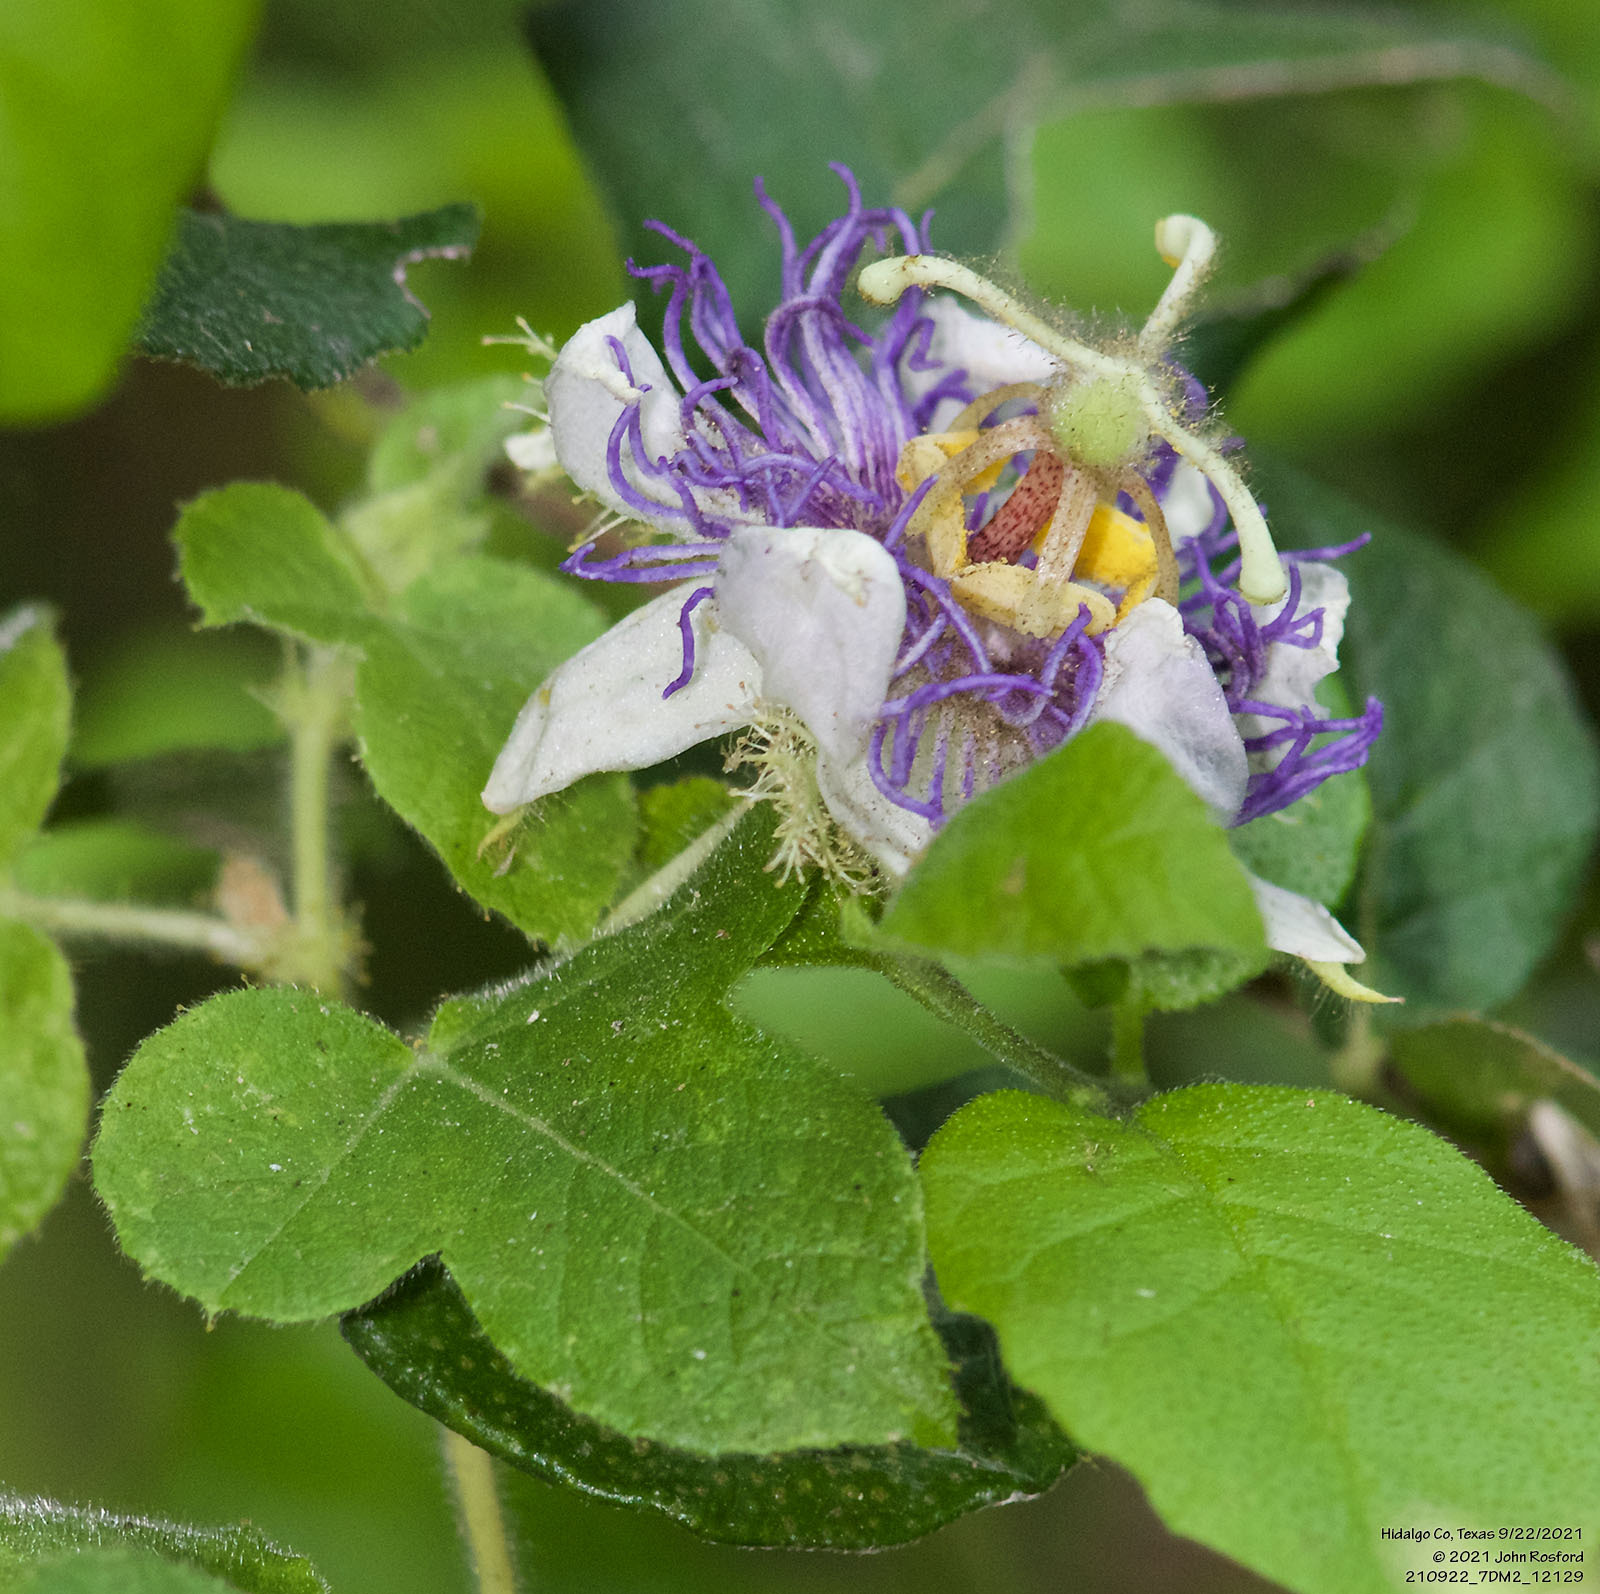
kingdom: Plantae
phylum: Tracheophyta
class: Magnoliopsida
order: Malpighiales
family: Passifloraceae
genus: Passiflora
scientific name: Passiflora foetida
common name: Fetid passionflower
